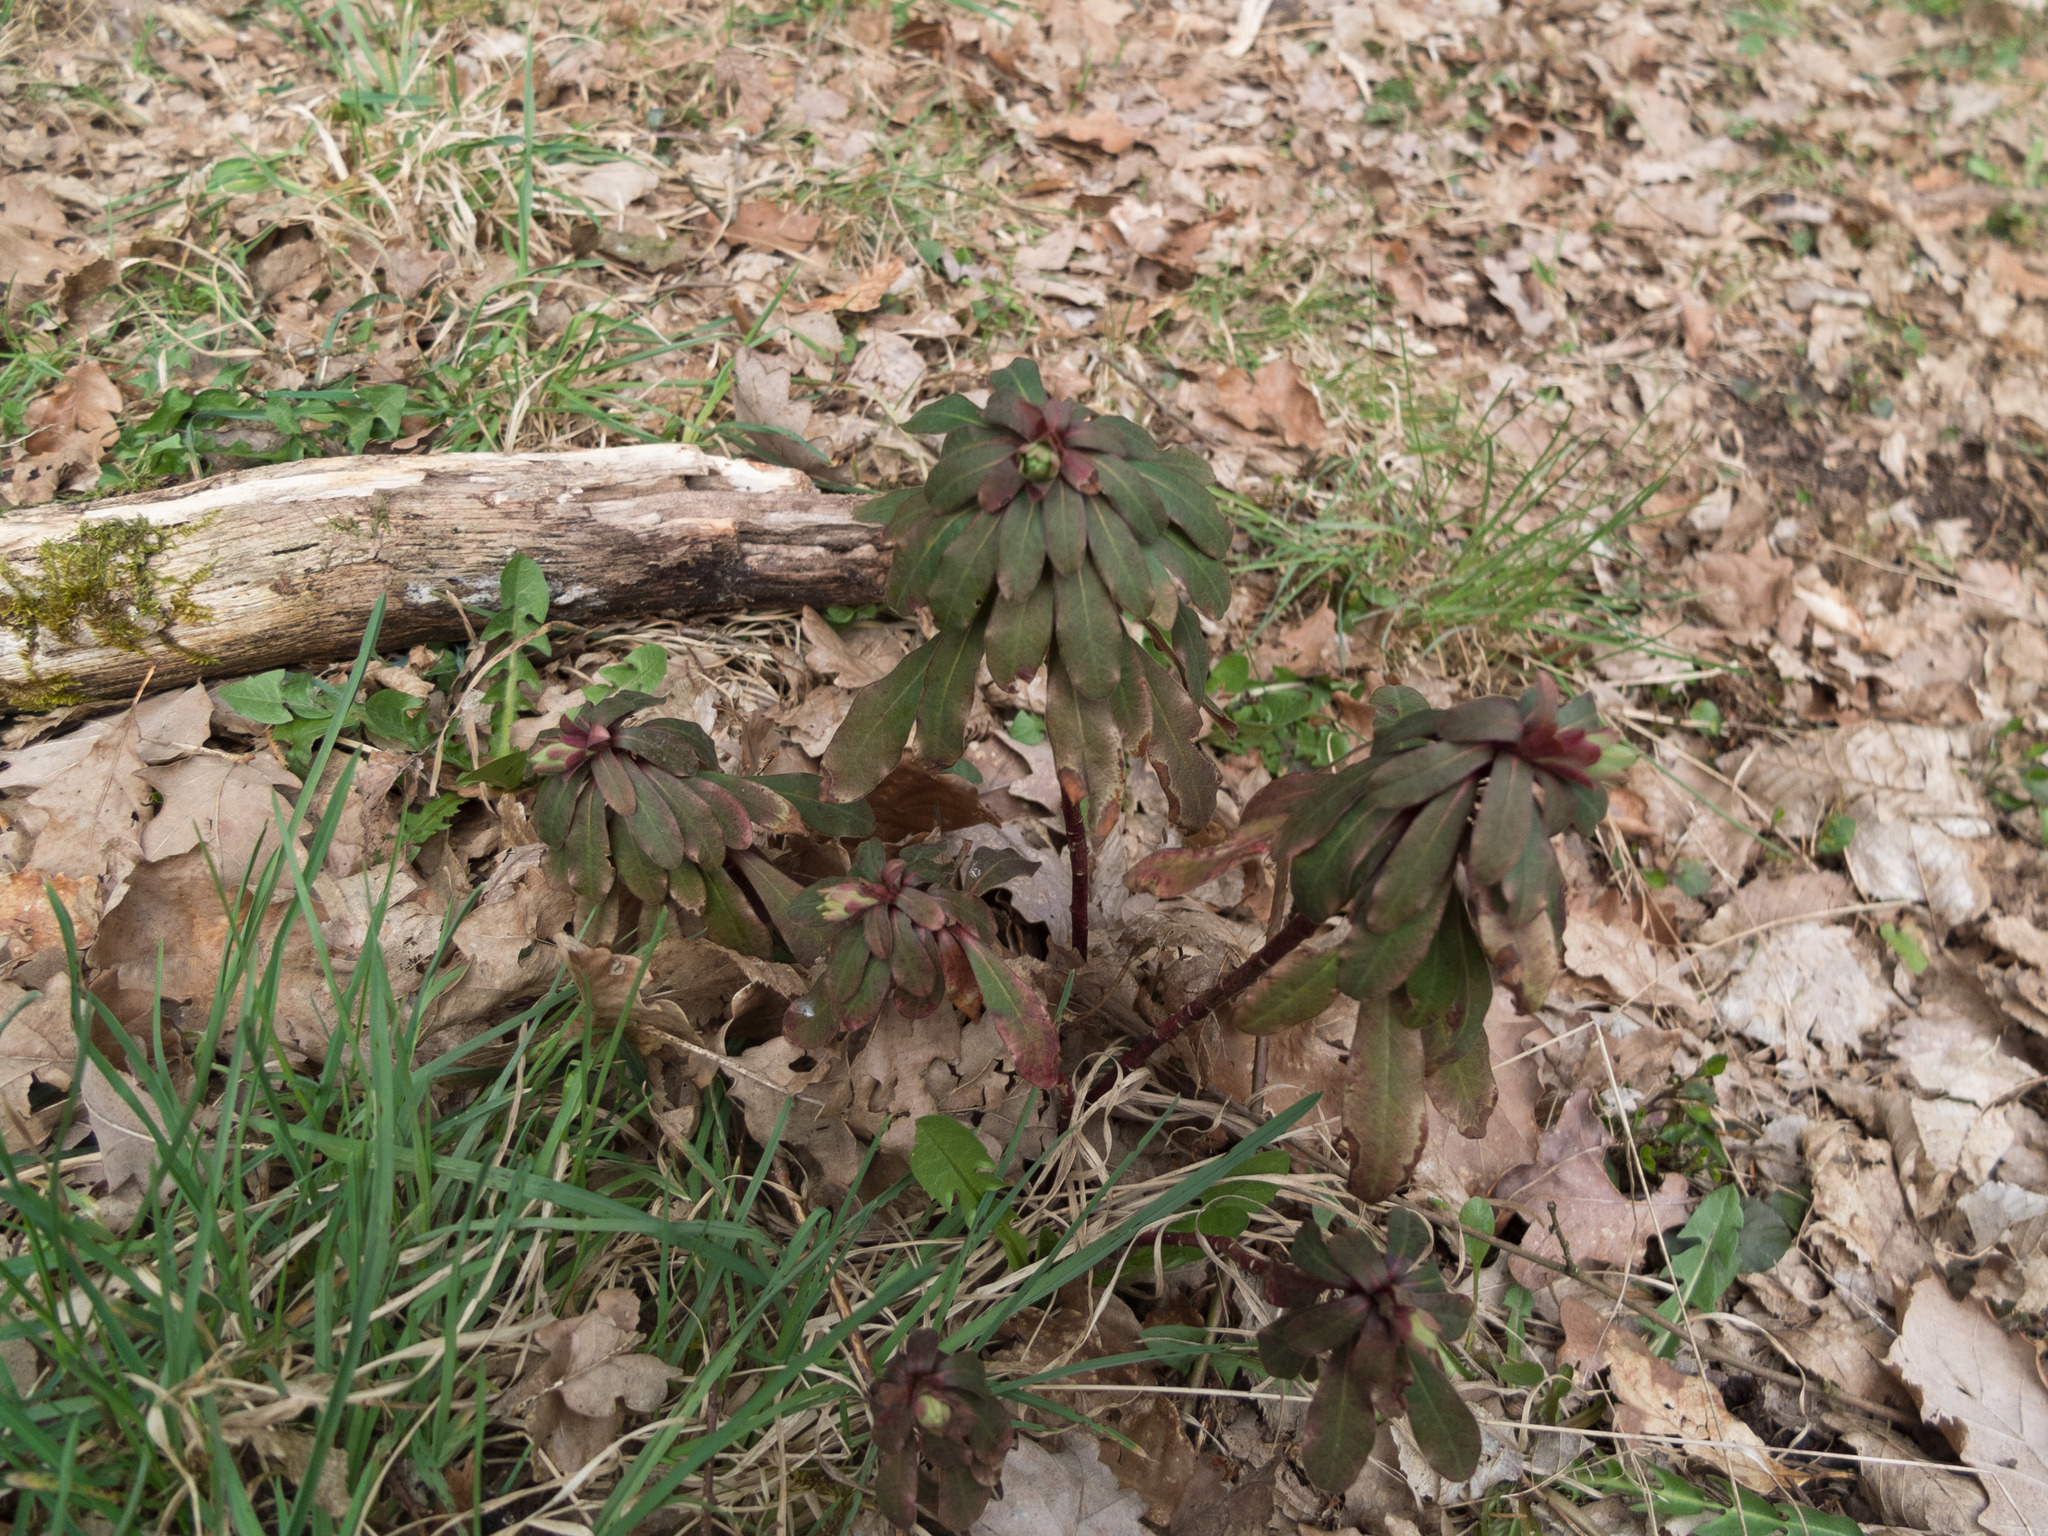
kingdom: Plantae
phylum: Tracheophyta
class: Magnoliopsida
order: Malpighiales
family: Euphorbiaceae
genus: Euphorbia
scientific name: Euphorbia amygdaloides
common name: Wood spurge
